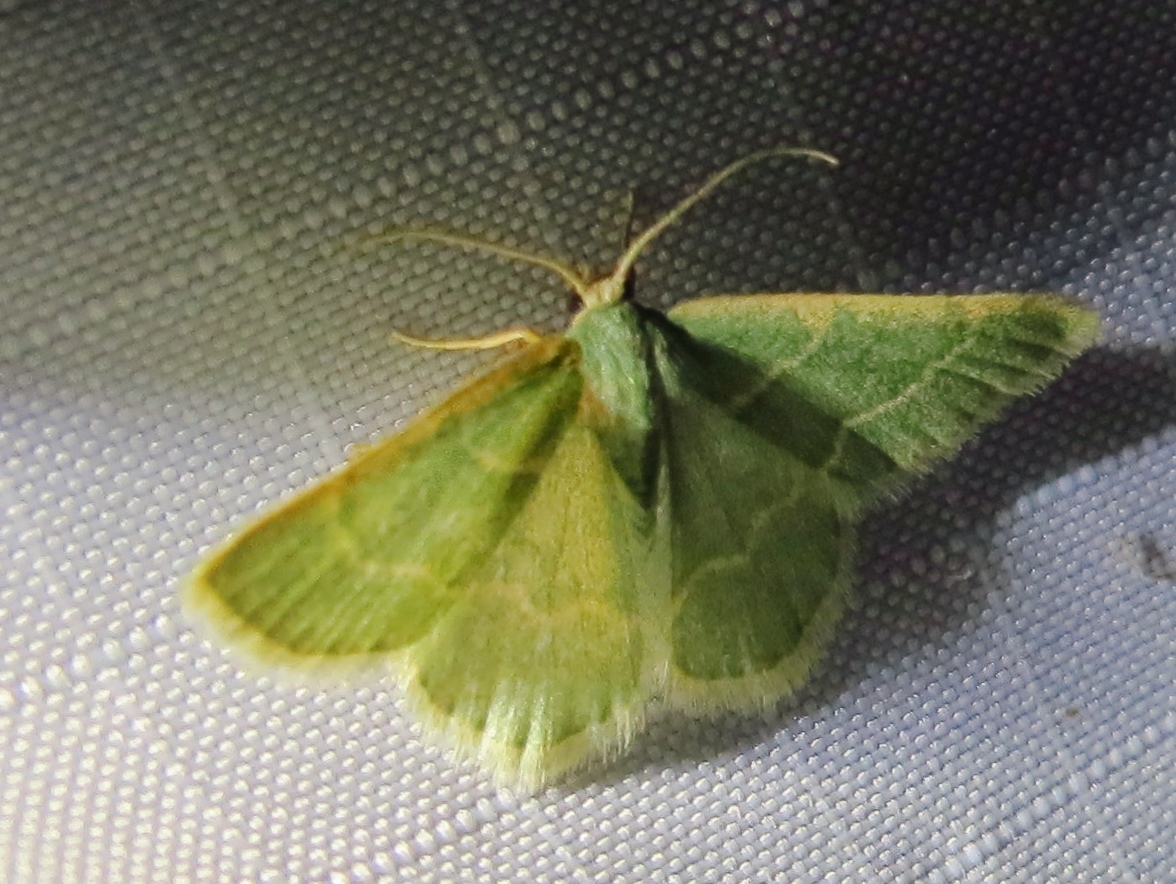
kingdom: Animalia
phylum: Arthropoda
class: Insecta
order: Lepidoptera
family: Geometridae
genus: Chlorochlamys
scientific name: Chlorochlamys phyllinaria
